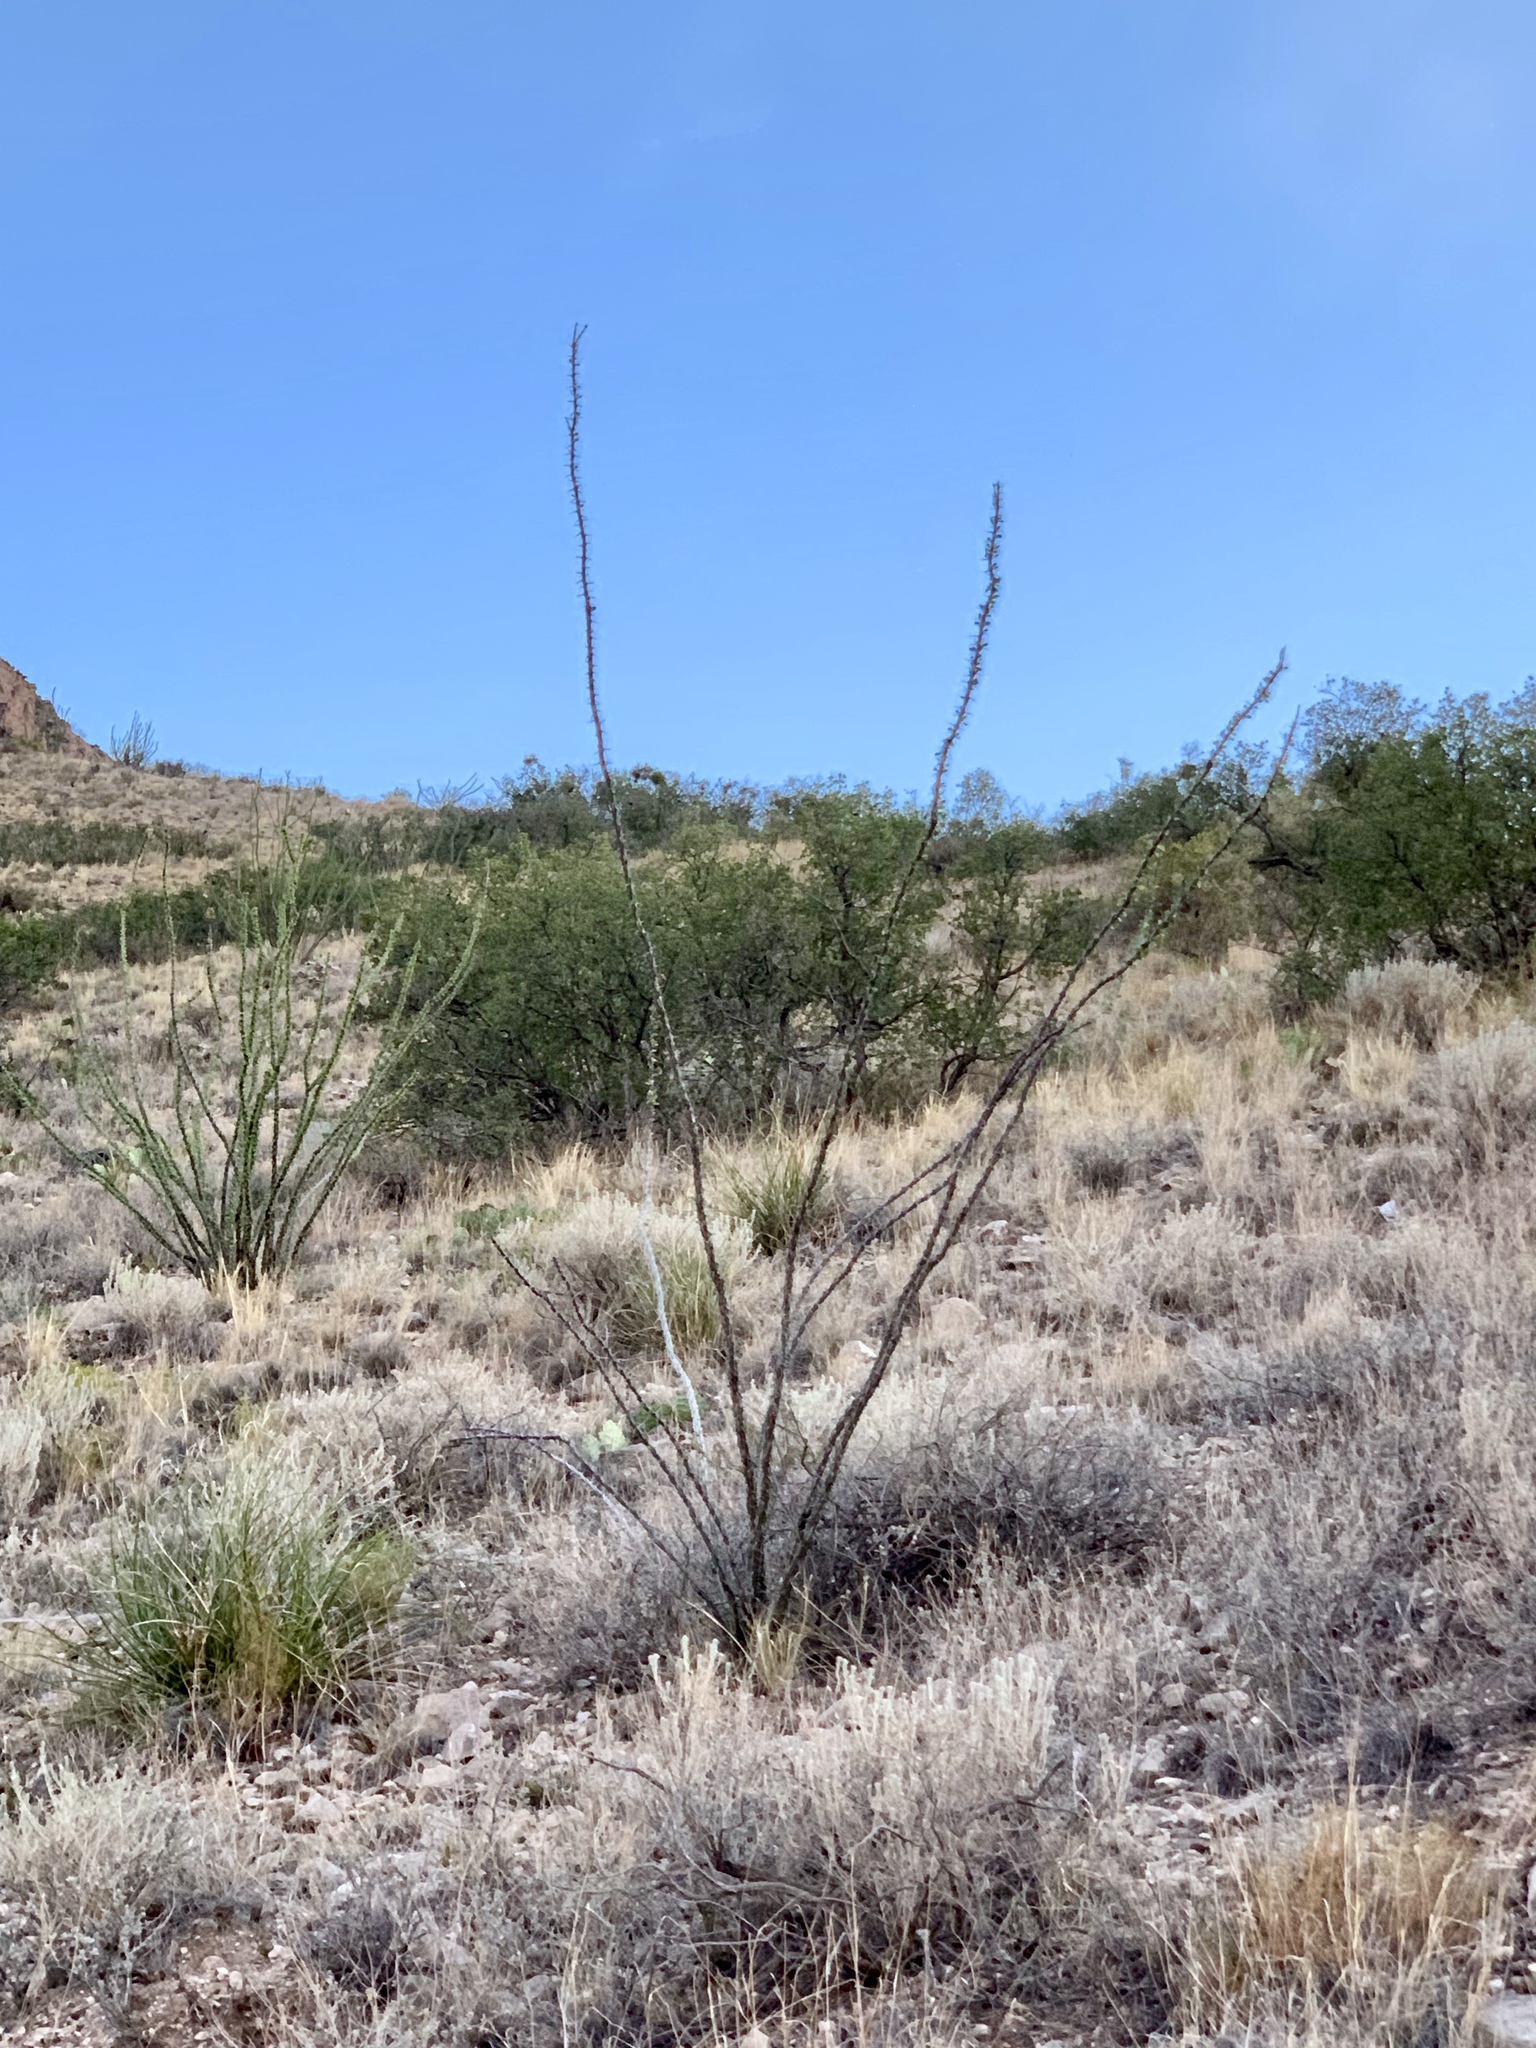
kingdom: Plantae
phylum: Tracheophyta
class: Magnoliopsida
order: Ericales
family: Fouquieriaceae
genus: Fouquieria
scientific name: Fouquieria splendens
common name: Vine-cactus
